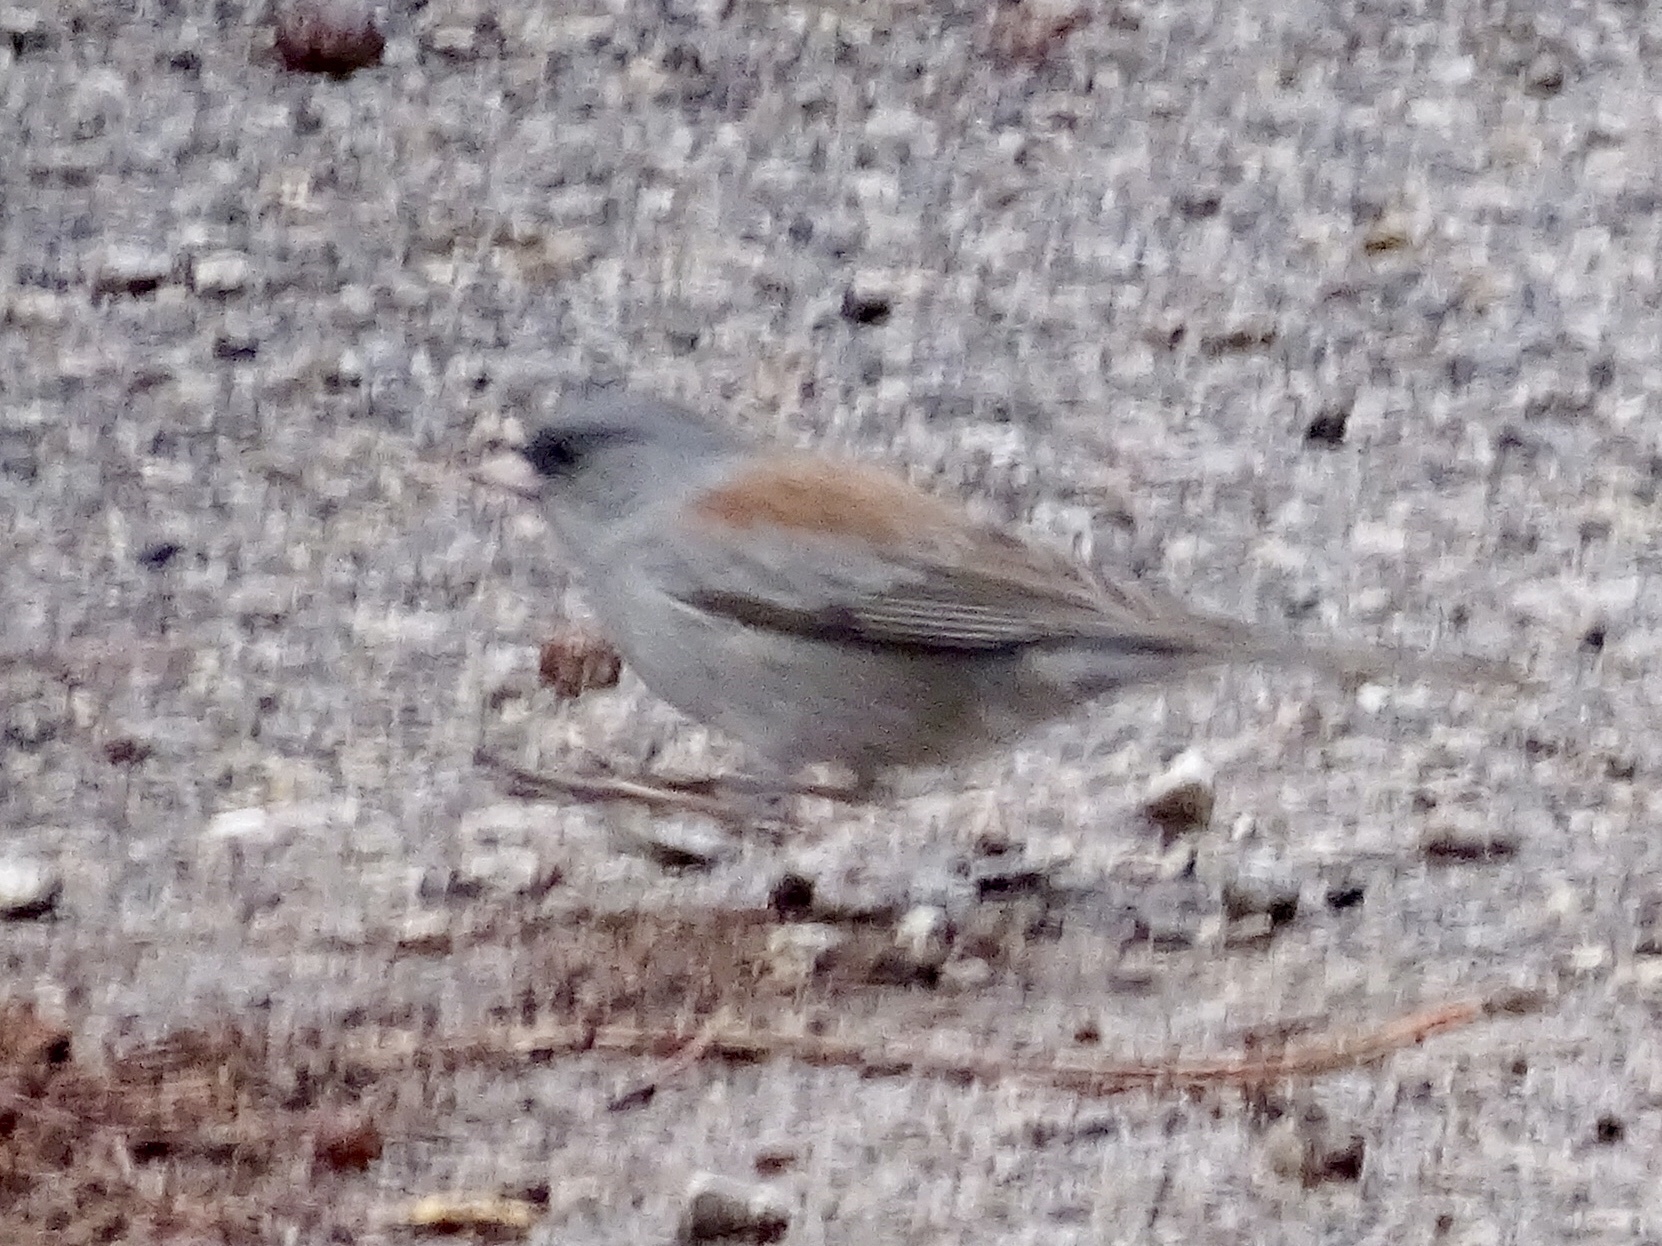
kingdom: Animalia
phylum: Chordata
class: Aves
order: Passeriformes
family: Passerellidae
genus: Junco
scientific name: Junco hyemalis
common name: Dark-eyed junco
